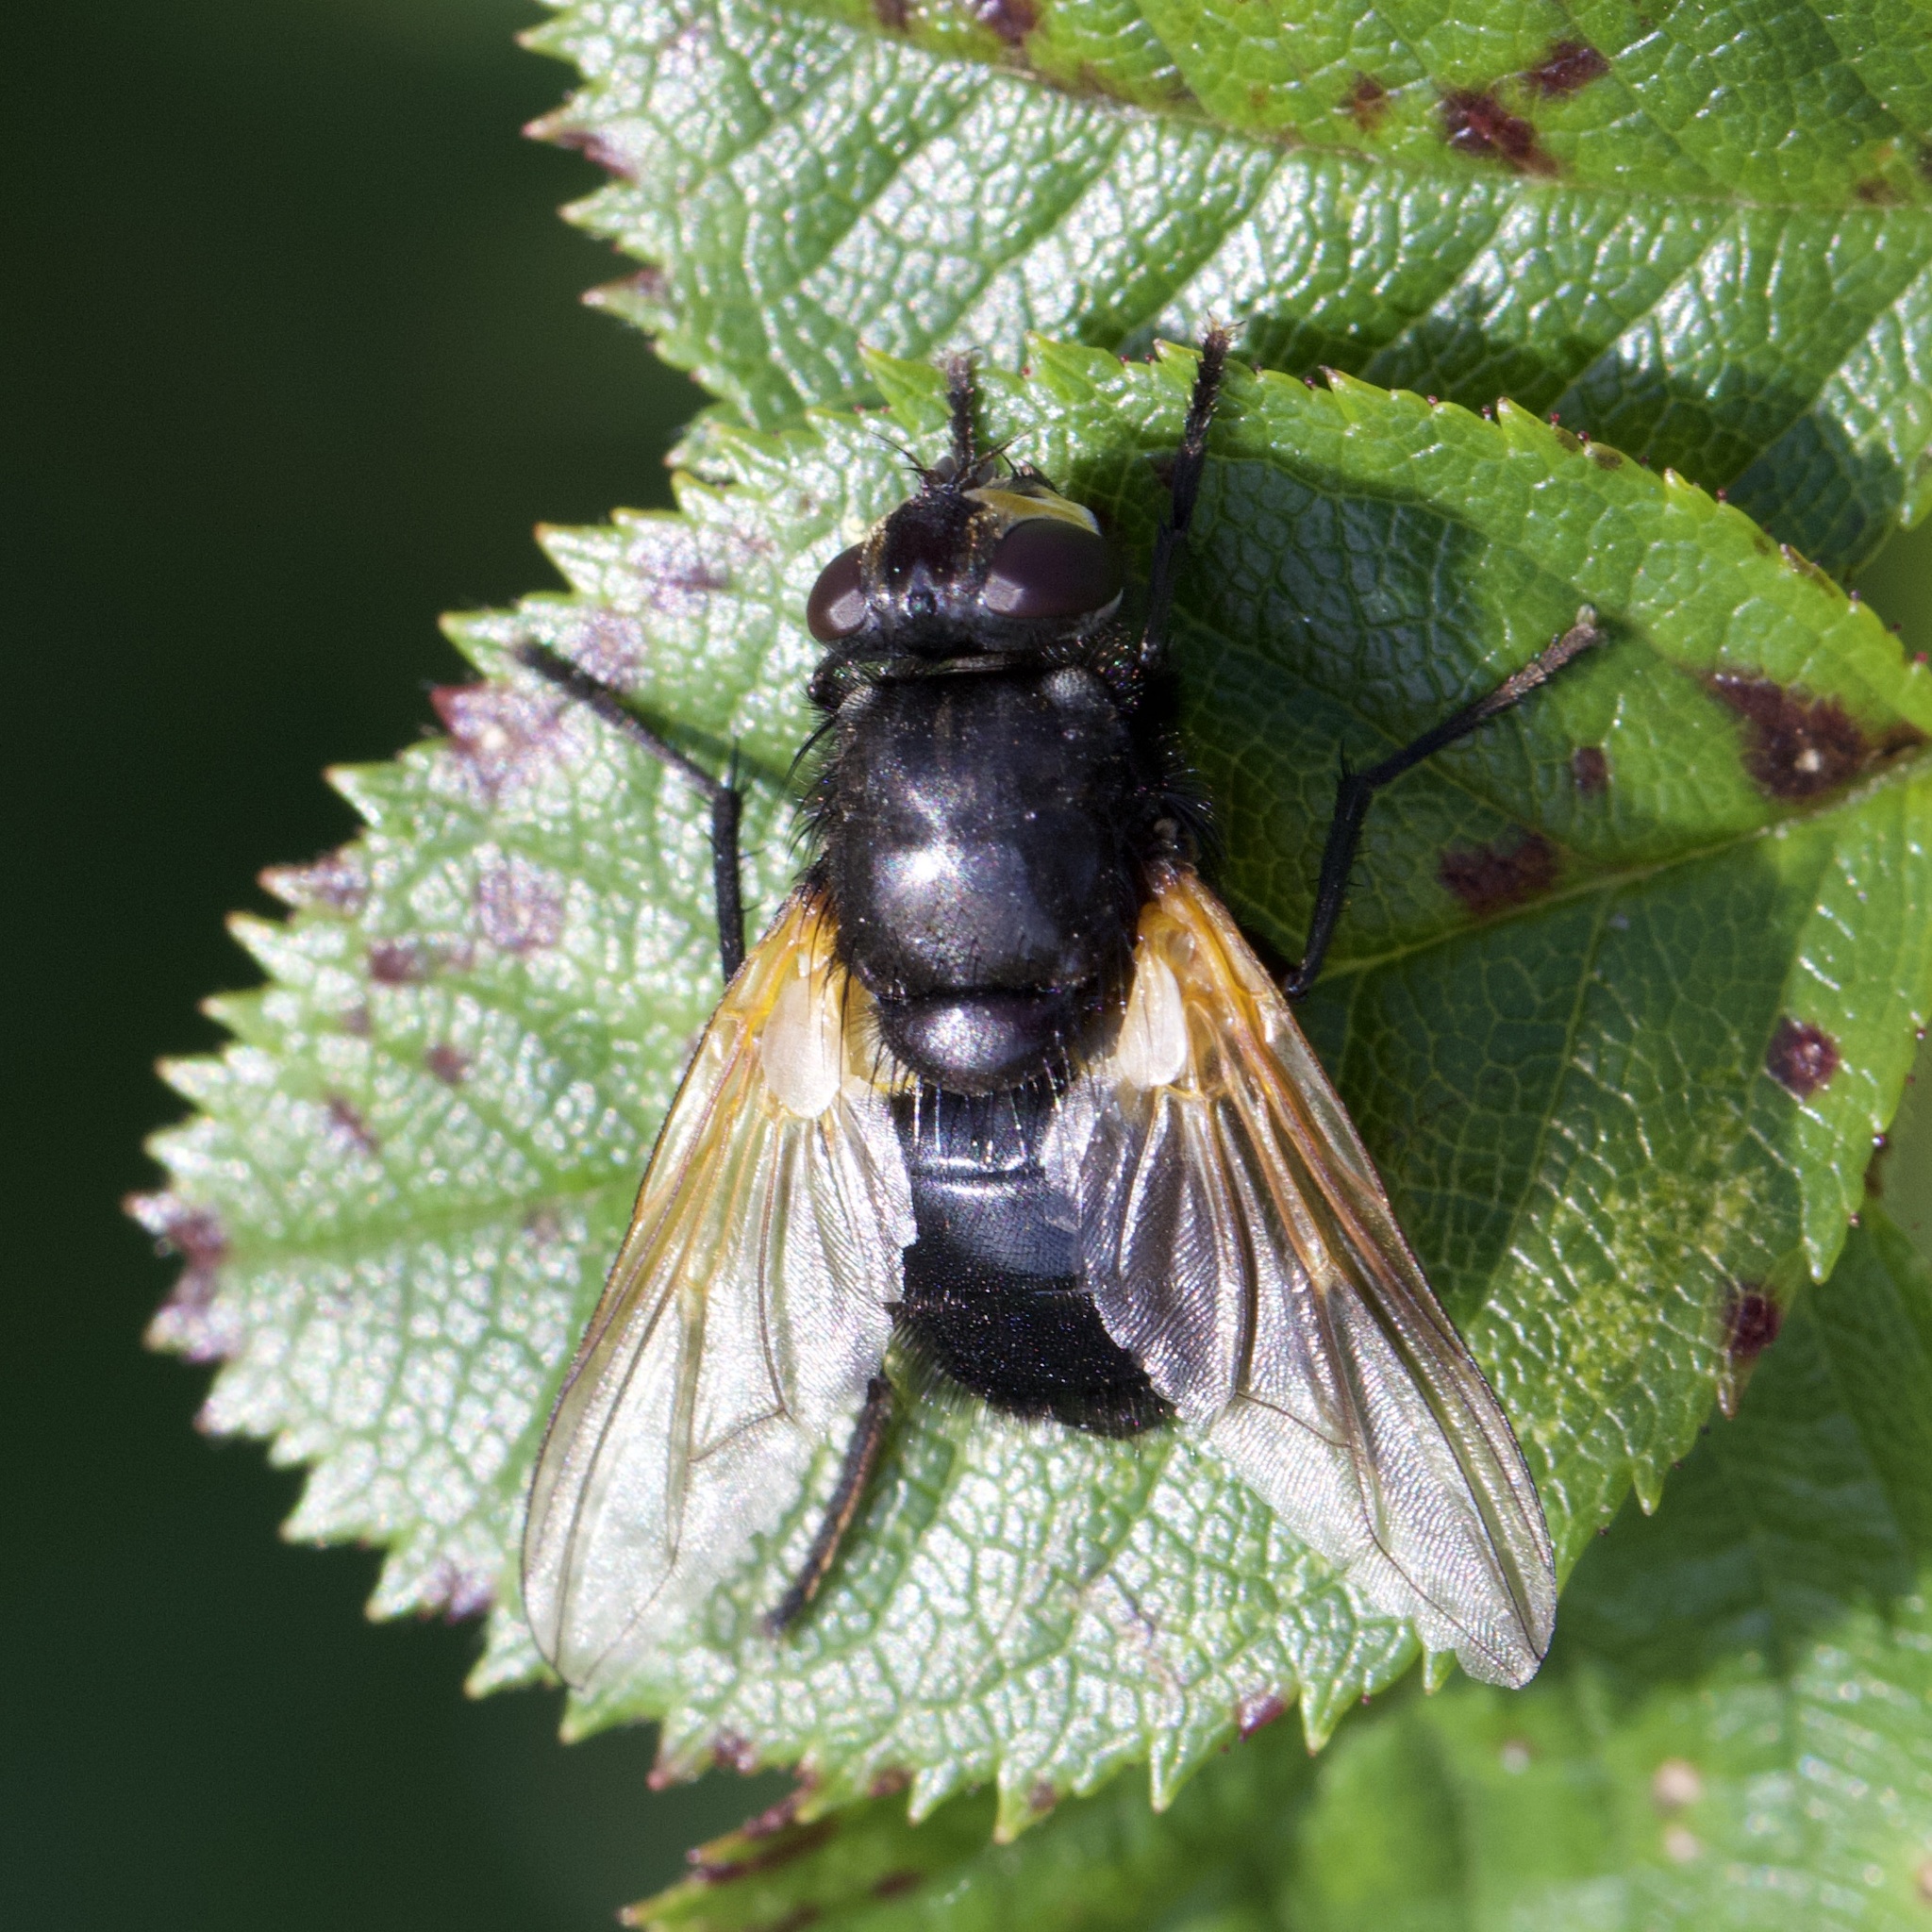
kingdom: Animalia
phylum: Arthropoda
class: Insecta
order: Diptera
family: Muscidae
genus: Mesembrina
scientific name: Mesembrina meridiana
